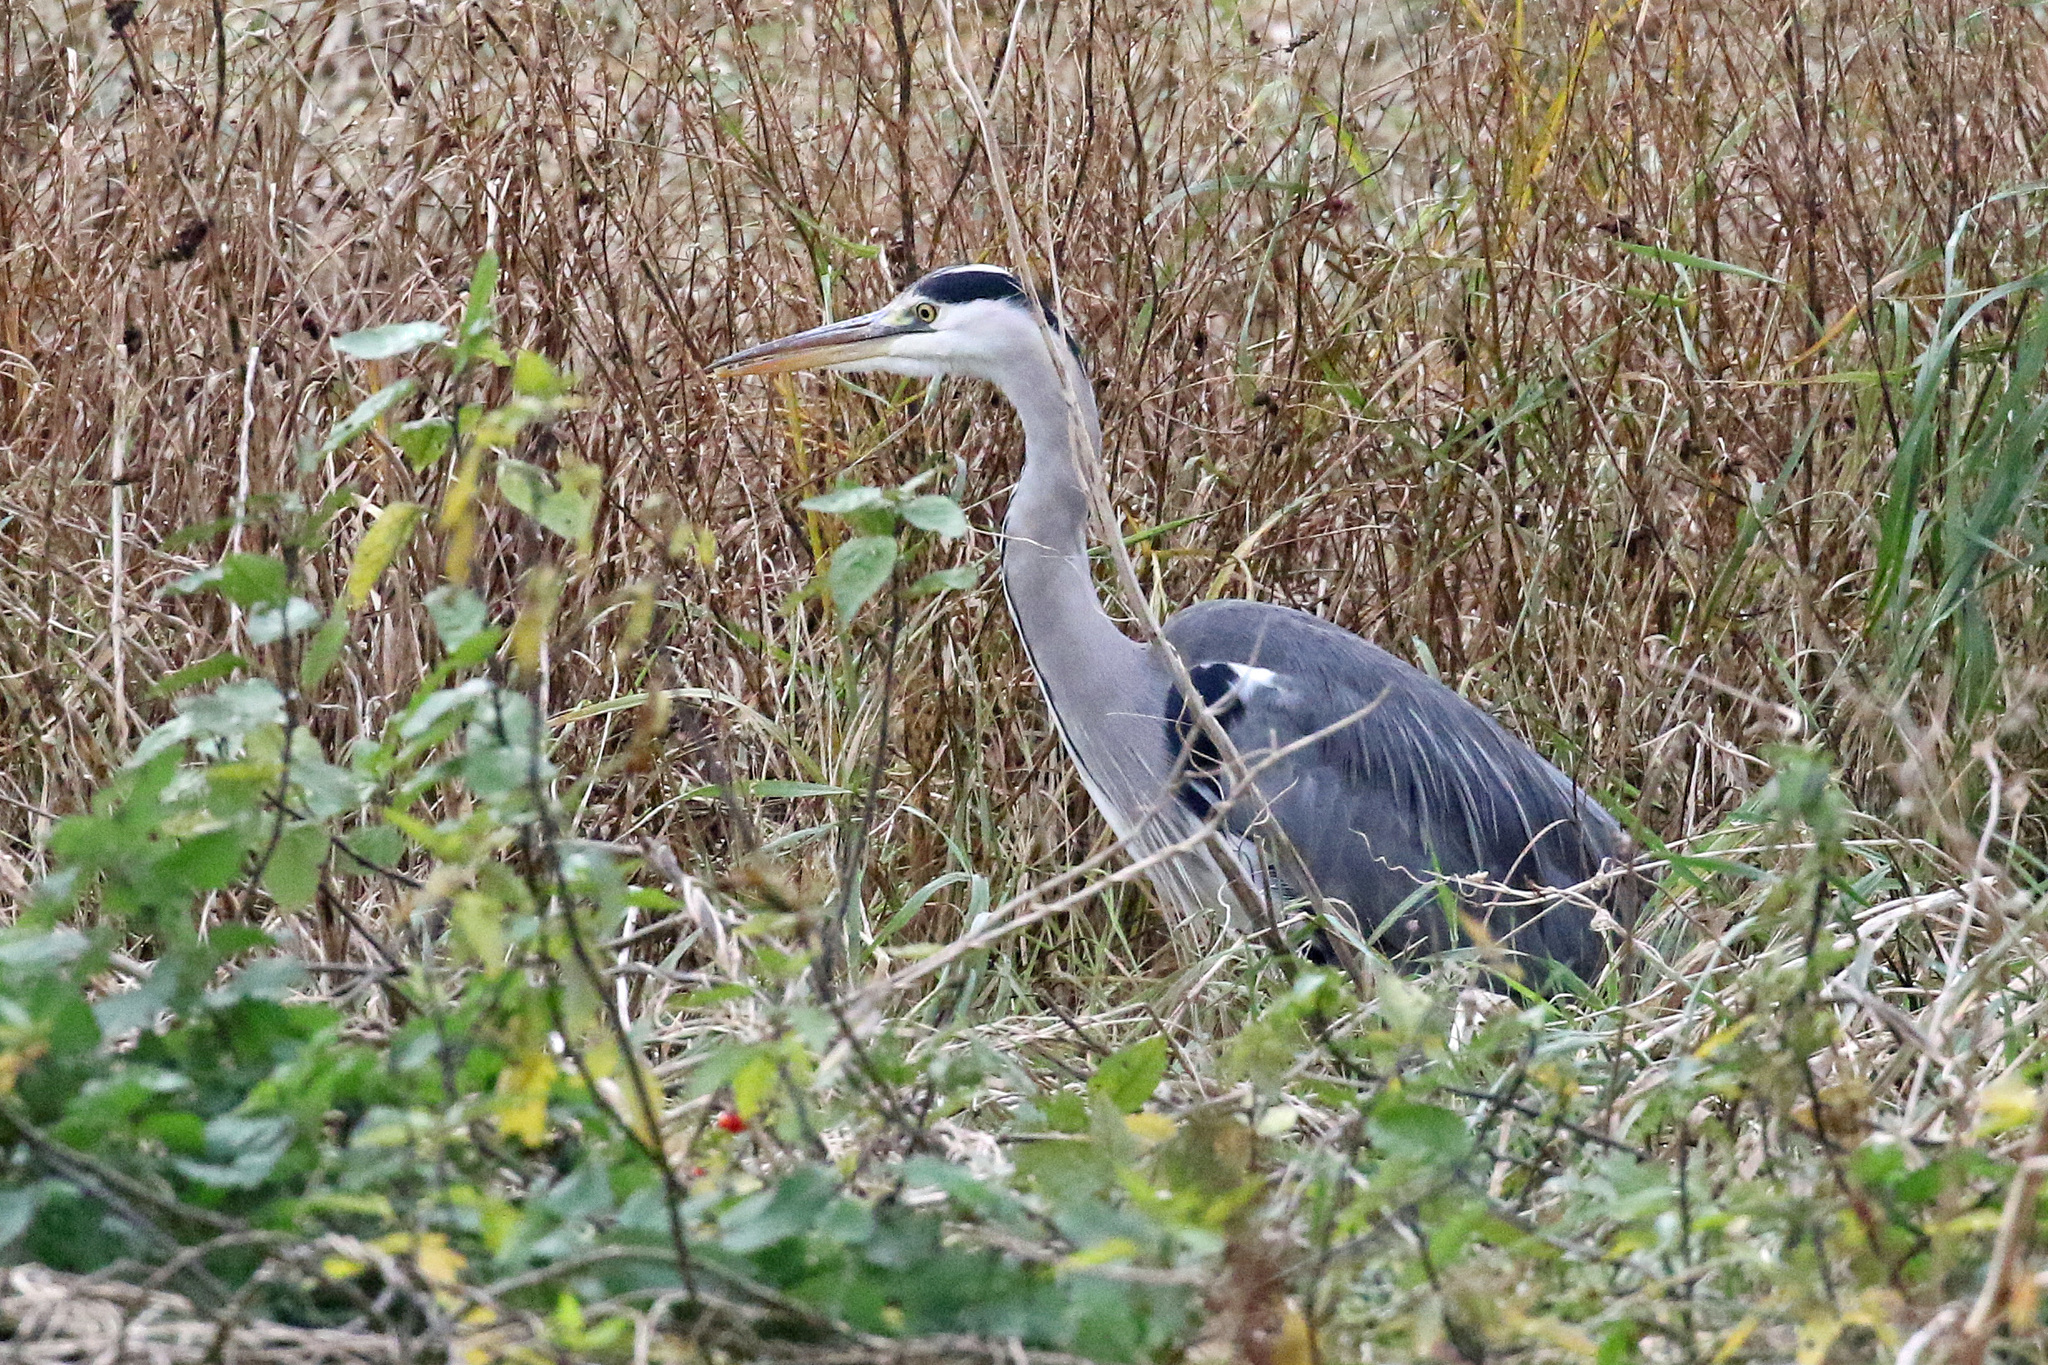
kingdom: Animalia
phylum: Chordata
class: Aves
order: Pelecaniformes
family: Ardeidae
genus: Ardea
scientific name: Ardea cinerea
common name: Grey heron
